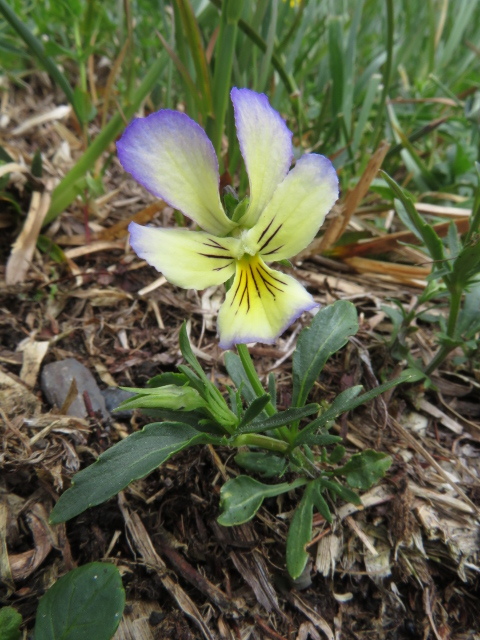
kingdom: Plantae
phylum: Tracheophyta
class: Magnoliopsida
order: Malpighiales
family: Violaceae
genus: Viola
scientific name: Viola lutea
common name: Mountain pansy
